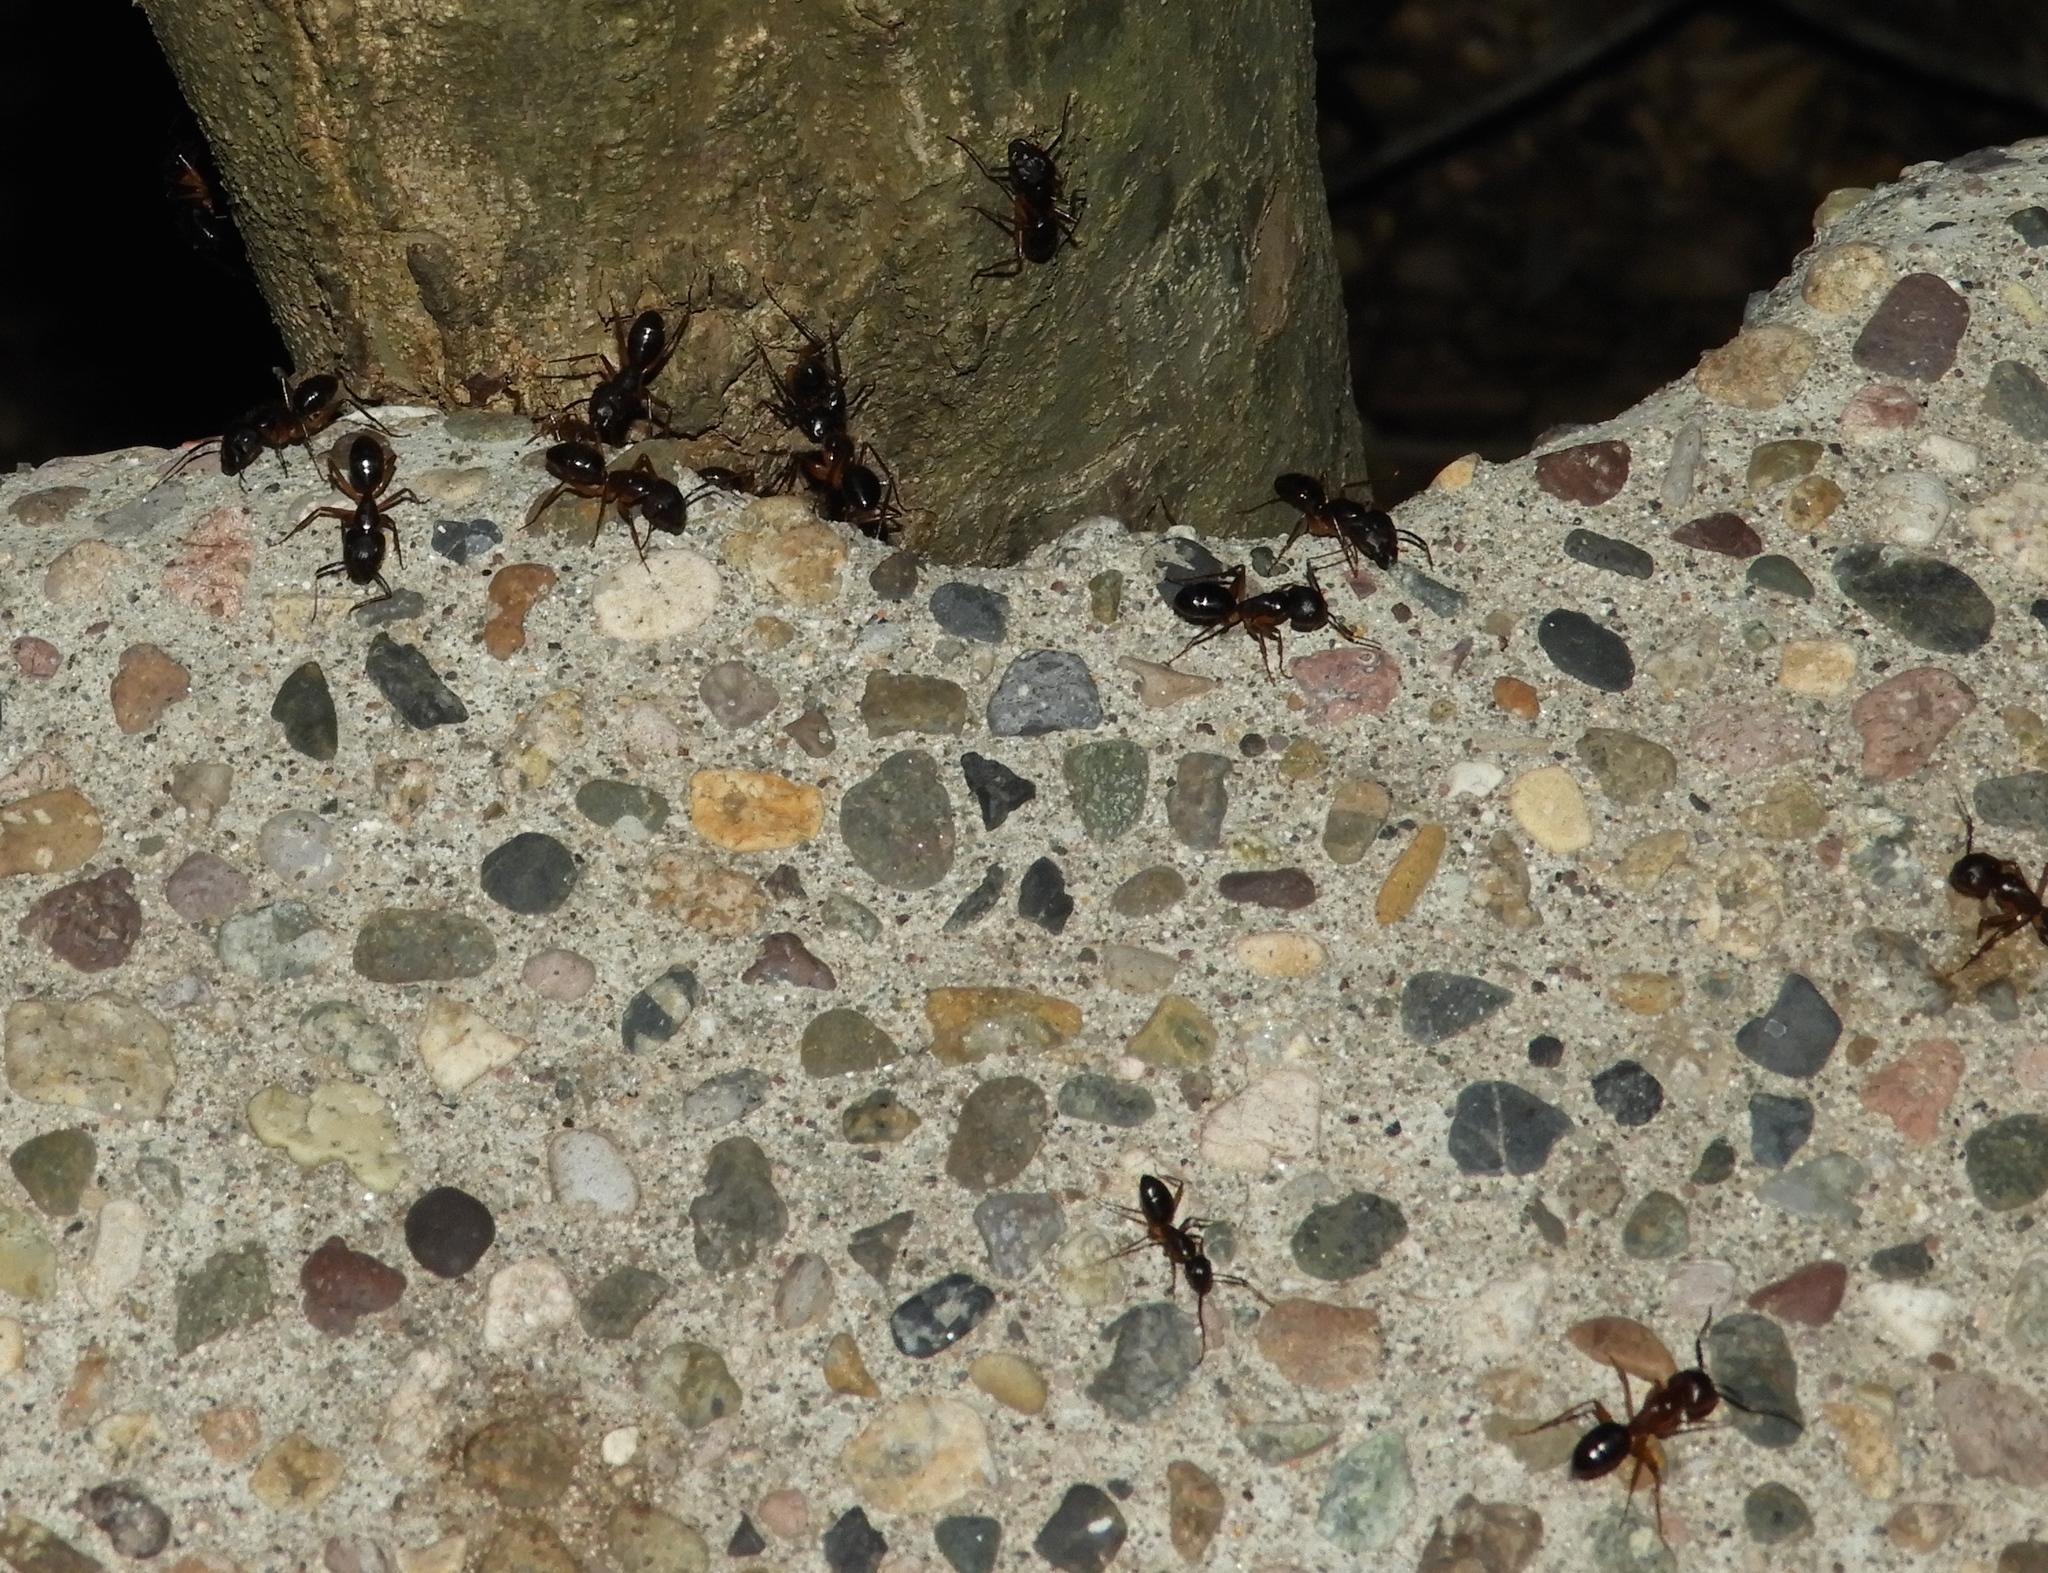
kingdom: Animalia
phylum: Arthropoda
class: Insecta
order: Hymenoptera
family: Formicidae
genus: Camponotus
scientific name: Camponotus
